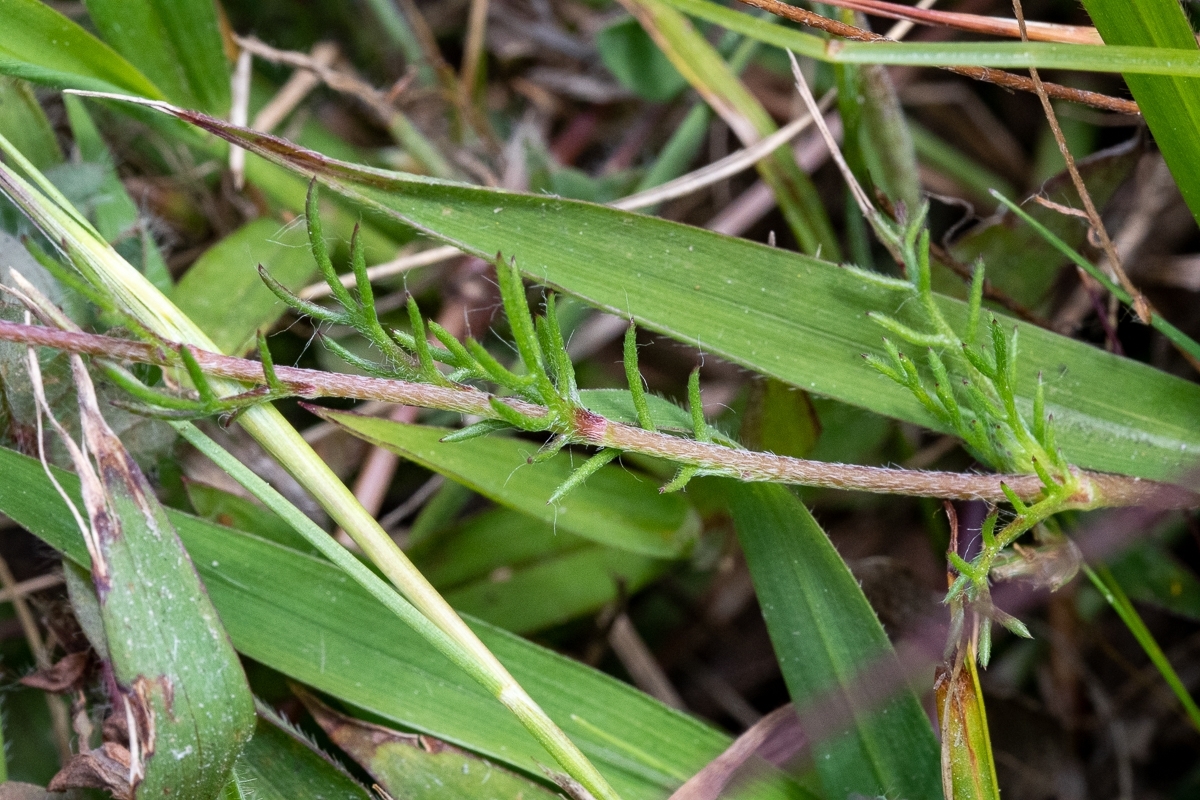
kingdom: Plantae
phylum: Tracheophyta
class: Magnoliopsida
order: Asterales
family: Asteraceae
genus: Cotula
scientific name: Cotula pruinosa
